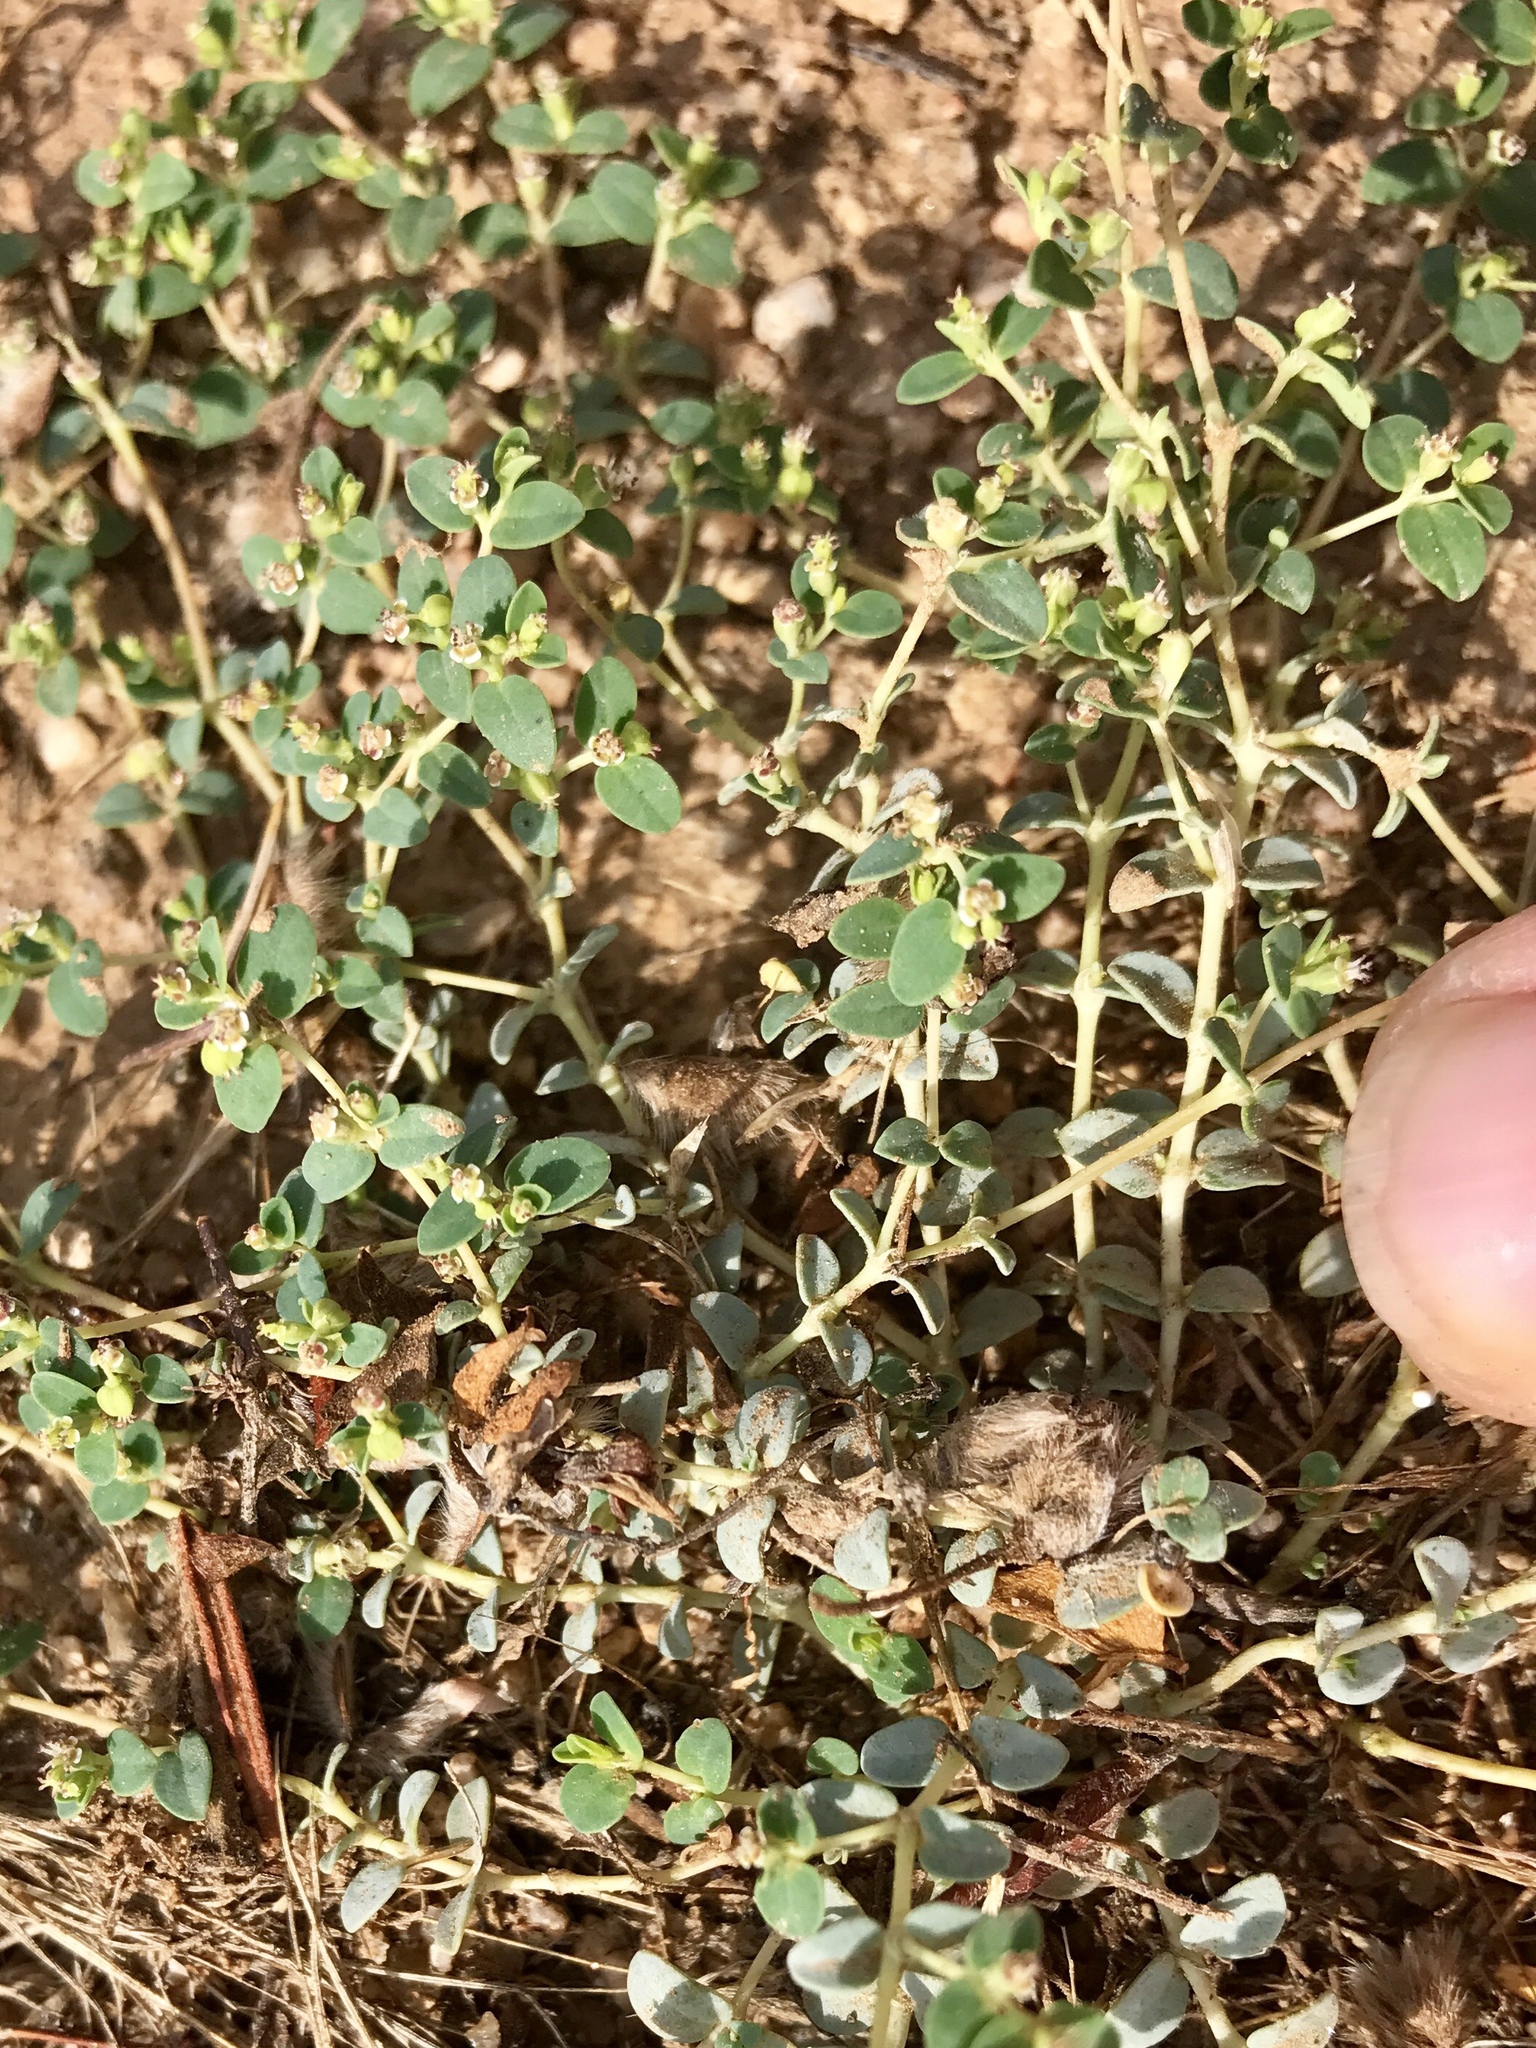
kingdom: Plantae
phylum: Tracheophyta
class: Magnoliopsida
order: Malpighiales
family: Euphorbiaceae
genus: Euphorbia
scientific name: Euphorbia polycarpa
